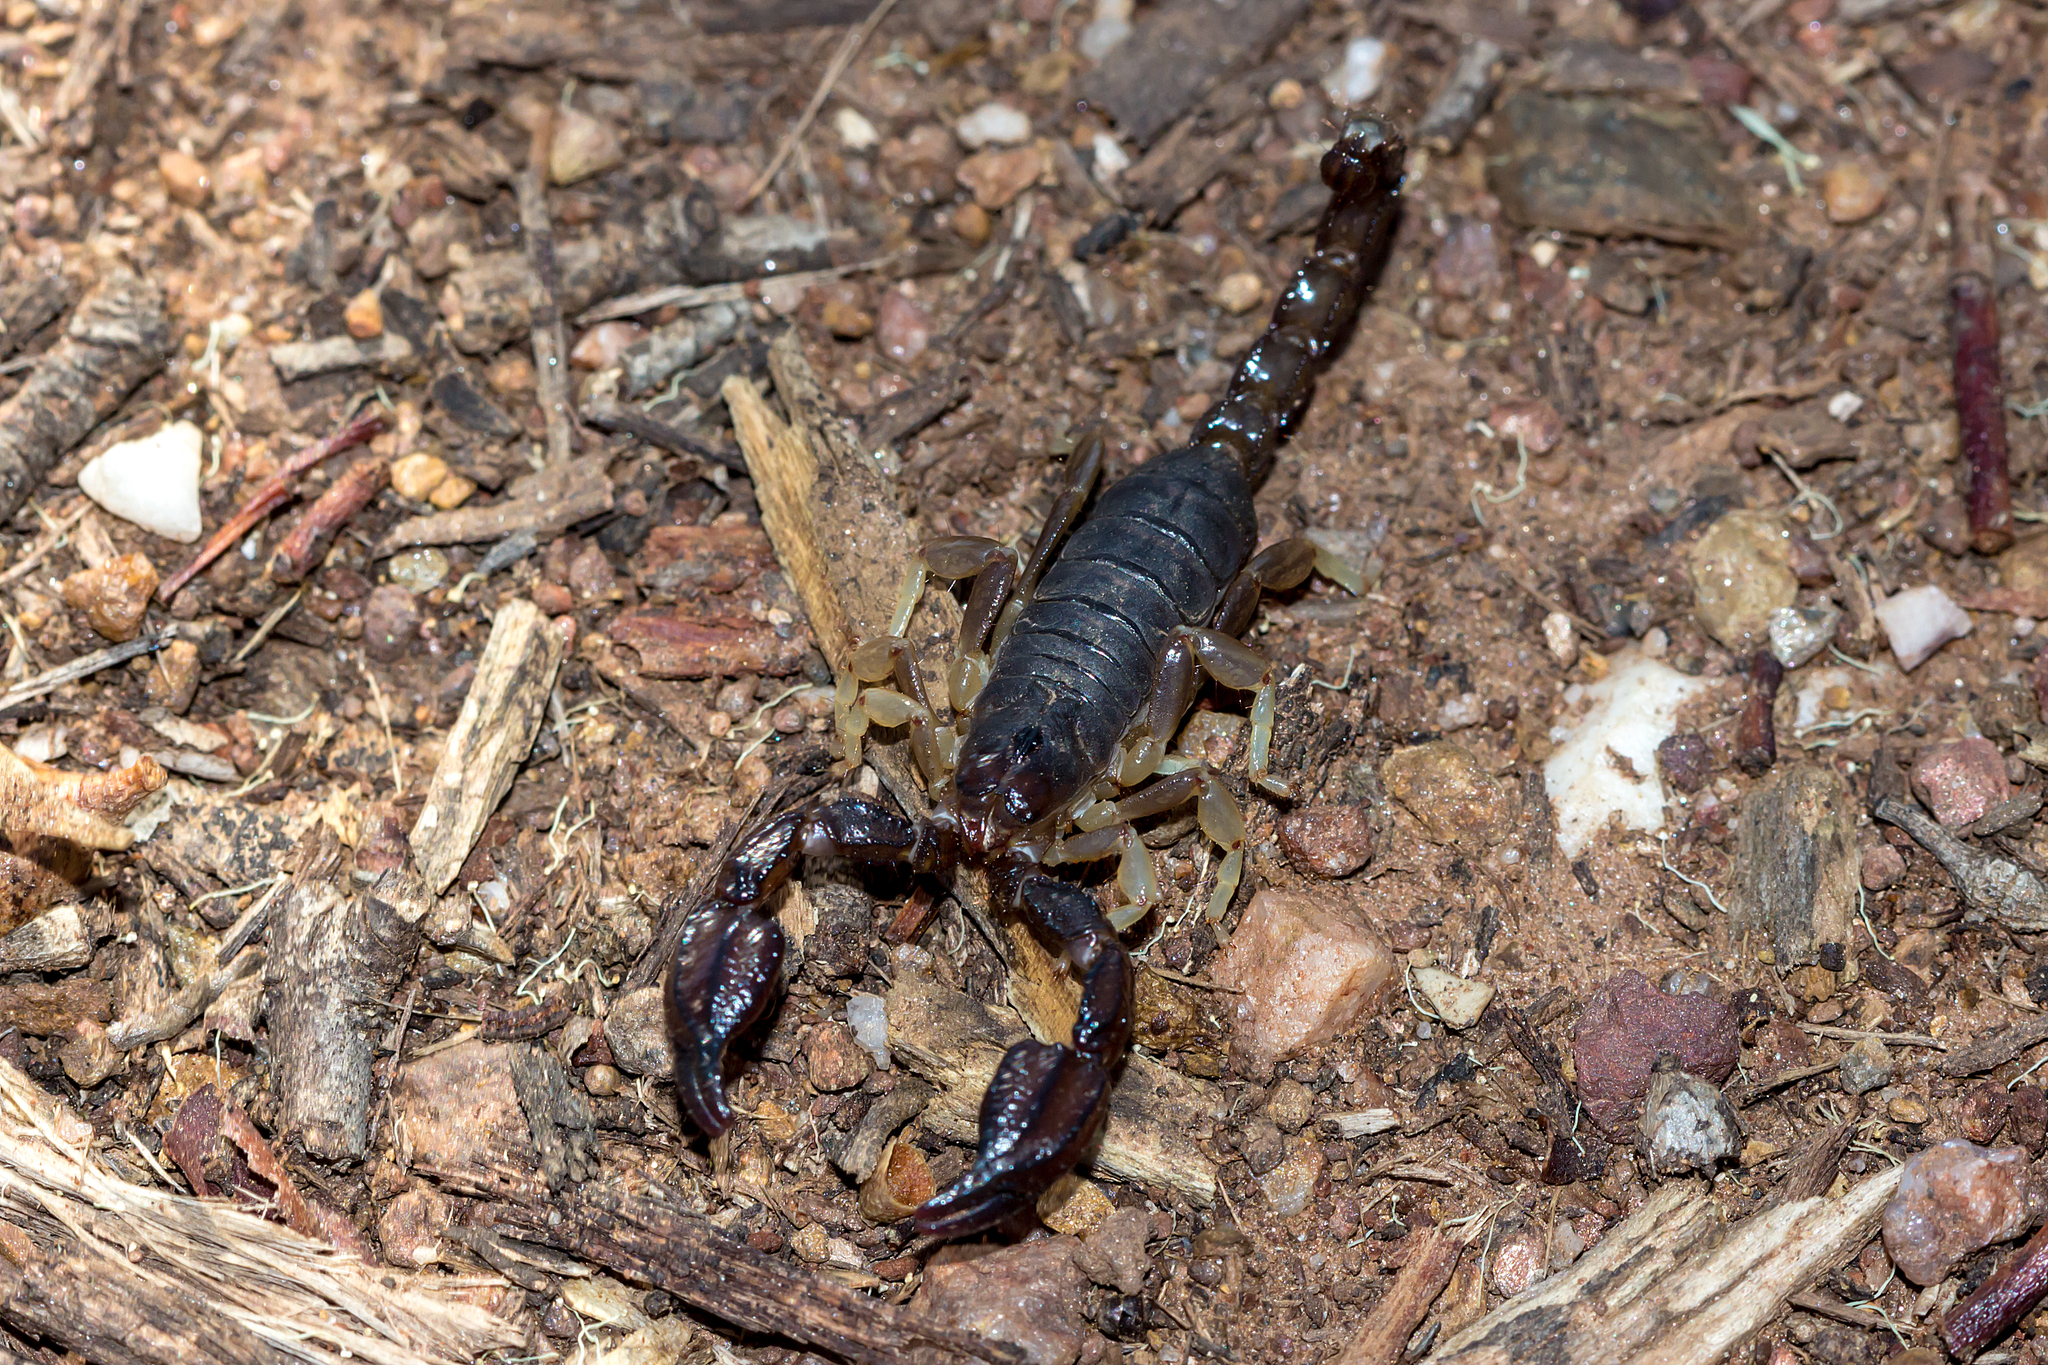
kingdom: Animalia
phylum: Arthropoda
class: Arachnida
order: Scorpiones
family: Scorpionidae
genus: Urodacus
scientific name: Urodacus manicatus
